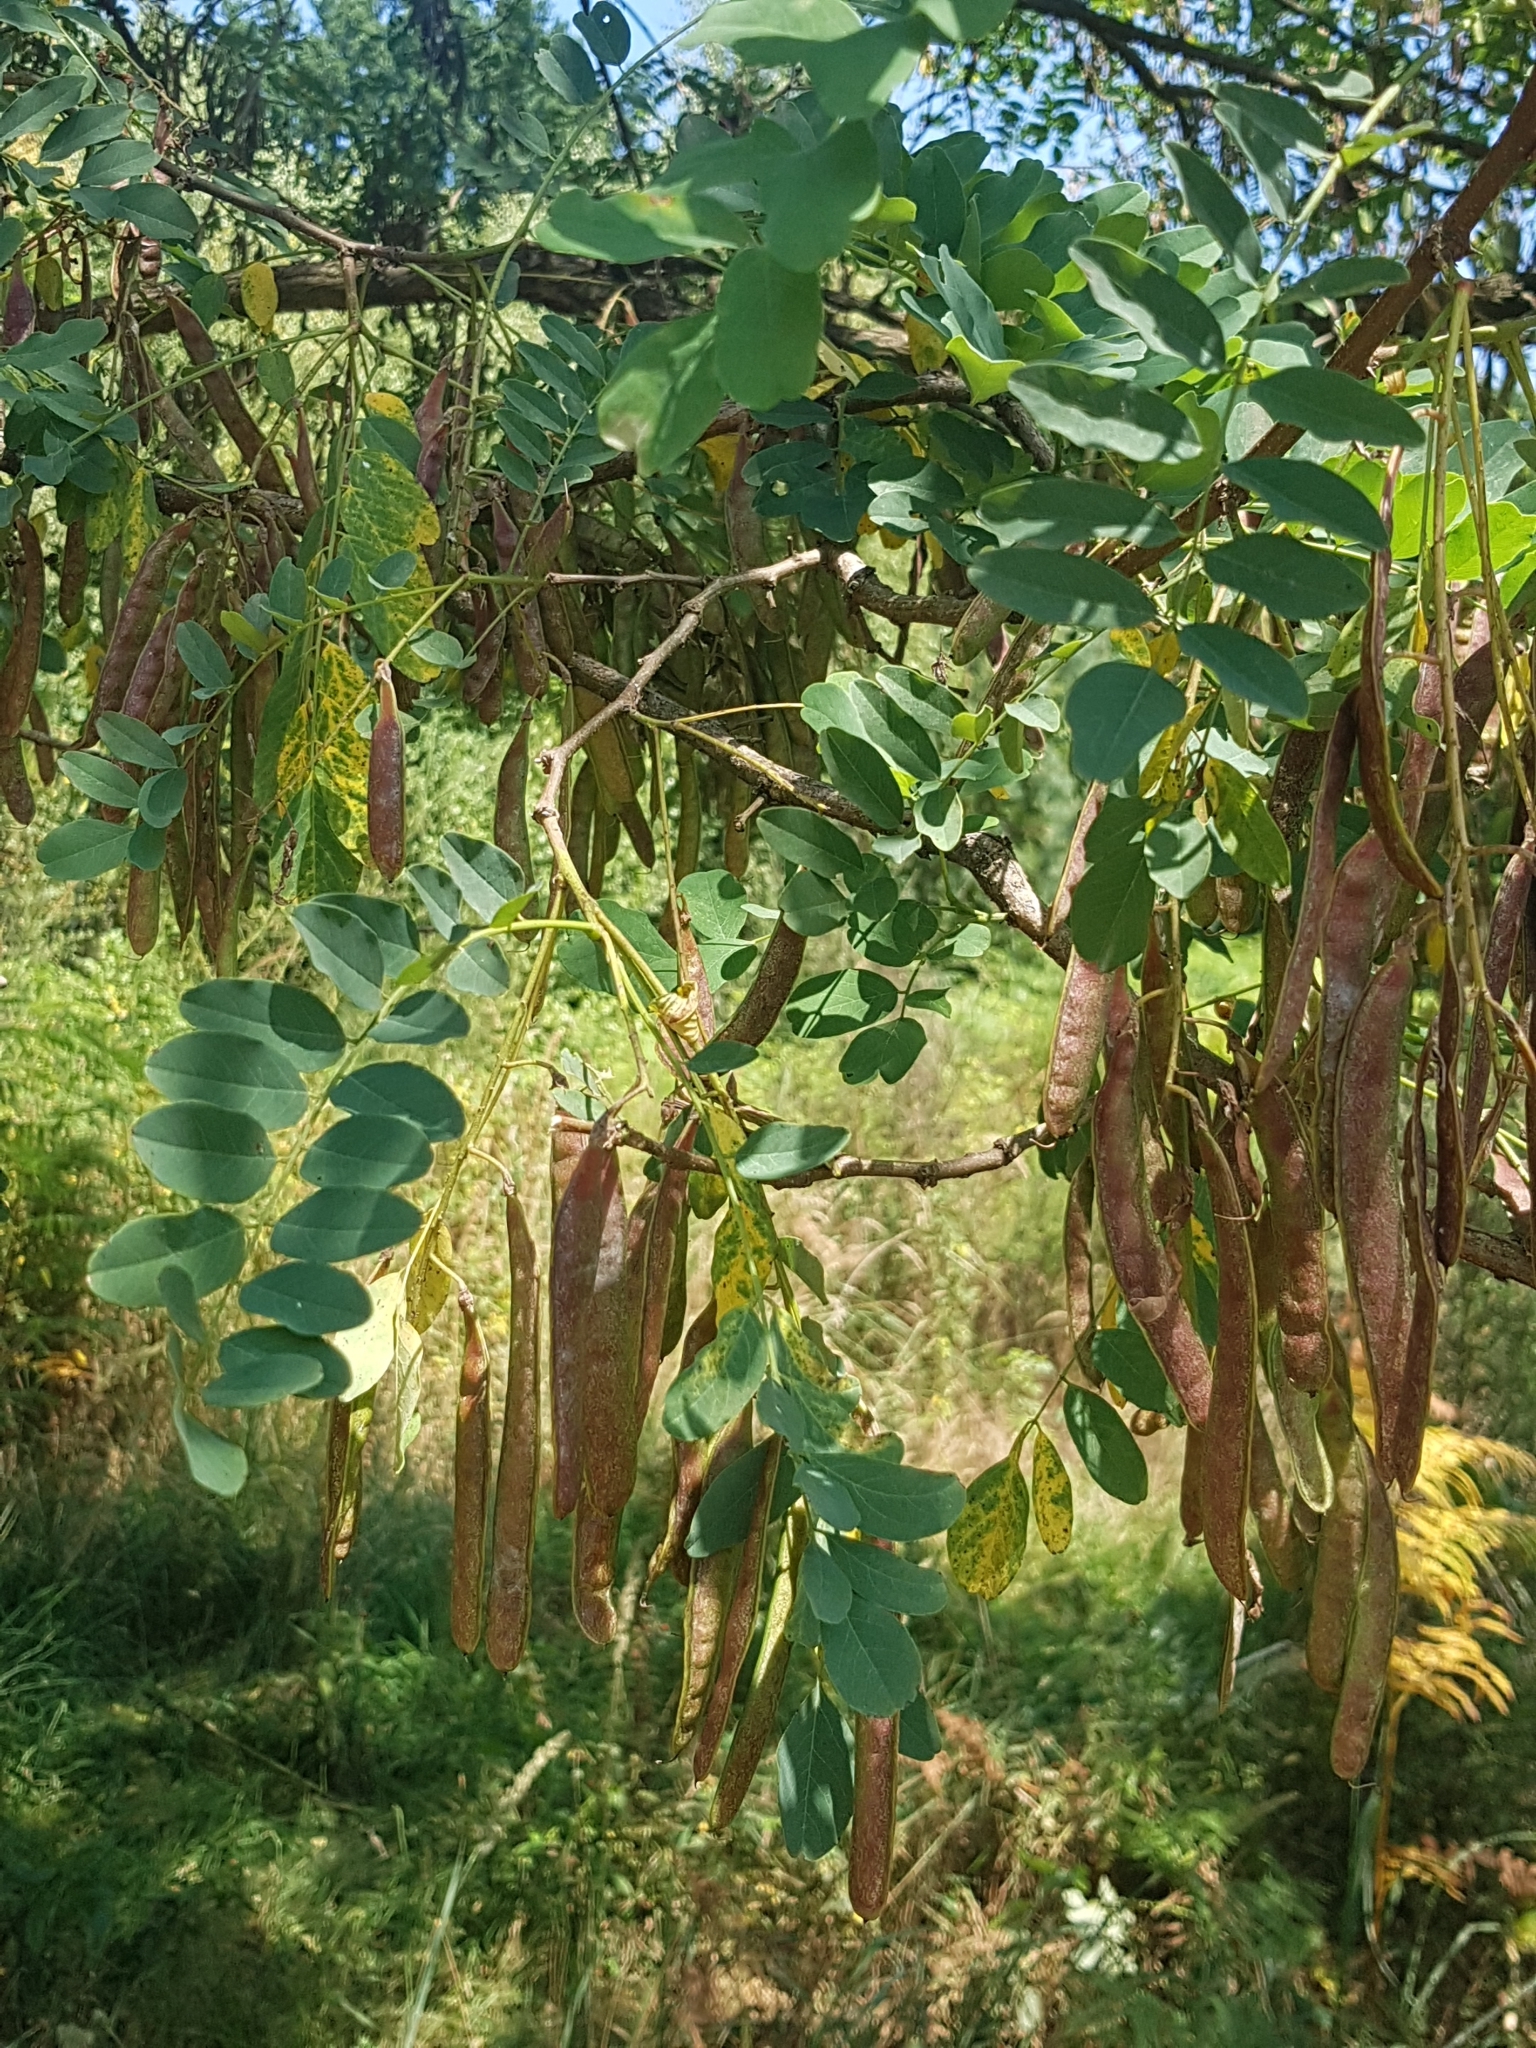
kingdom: Plantae
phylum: Tracheophyta
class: Magnoliopsida
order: Fabales
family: Fabaceae
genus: Robinia
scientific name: Robinia pseudoacacia
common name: Black locust
